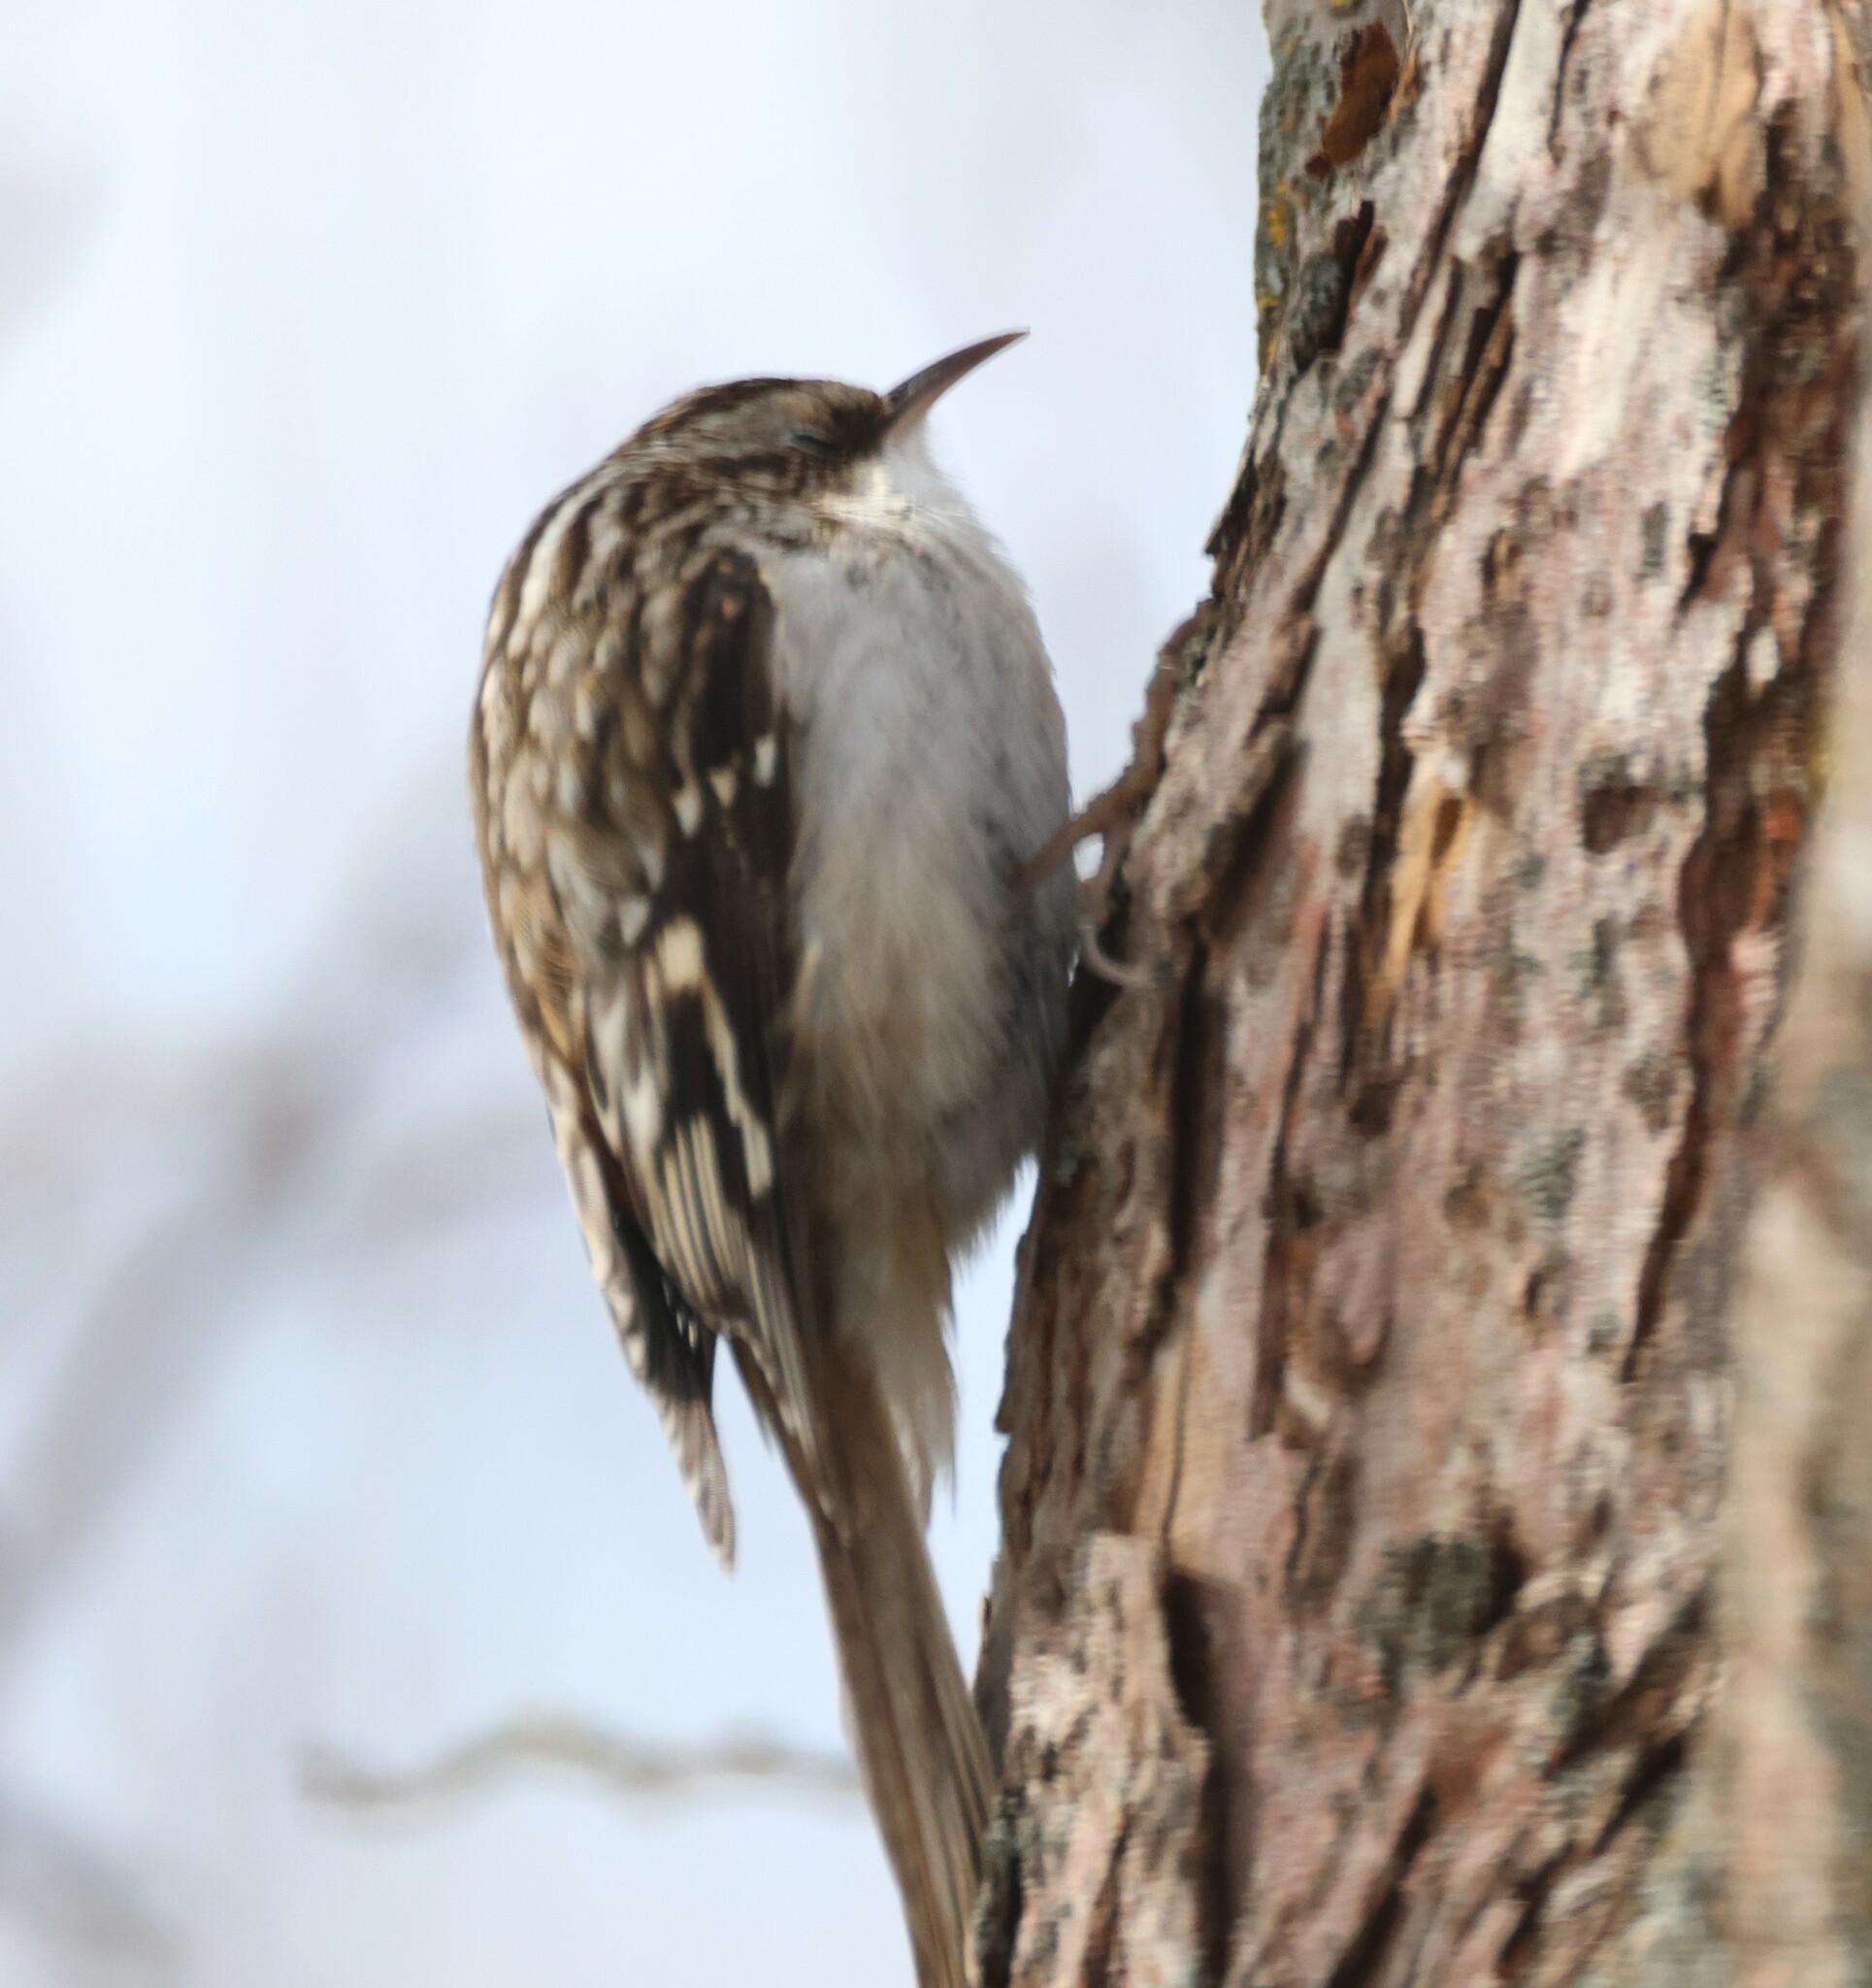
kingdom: Animalia
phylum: Chordata
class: Aves
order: Passeriformes
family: Certhiidae
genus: Certhia
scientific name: Certhia americana
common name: Brown creeper
